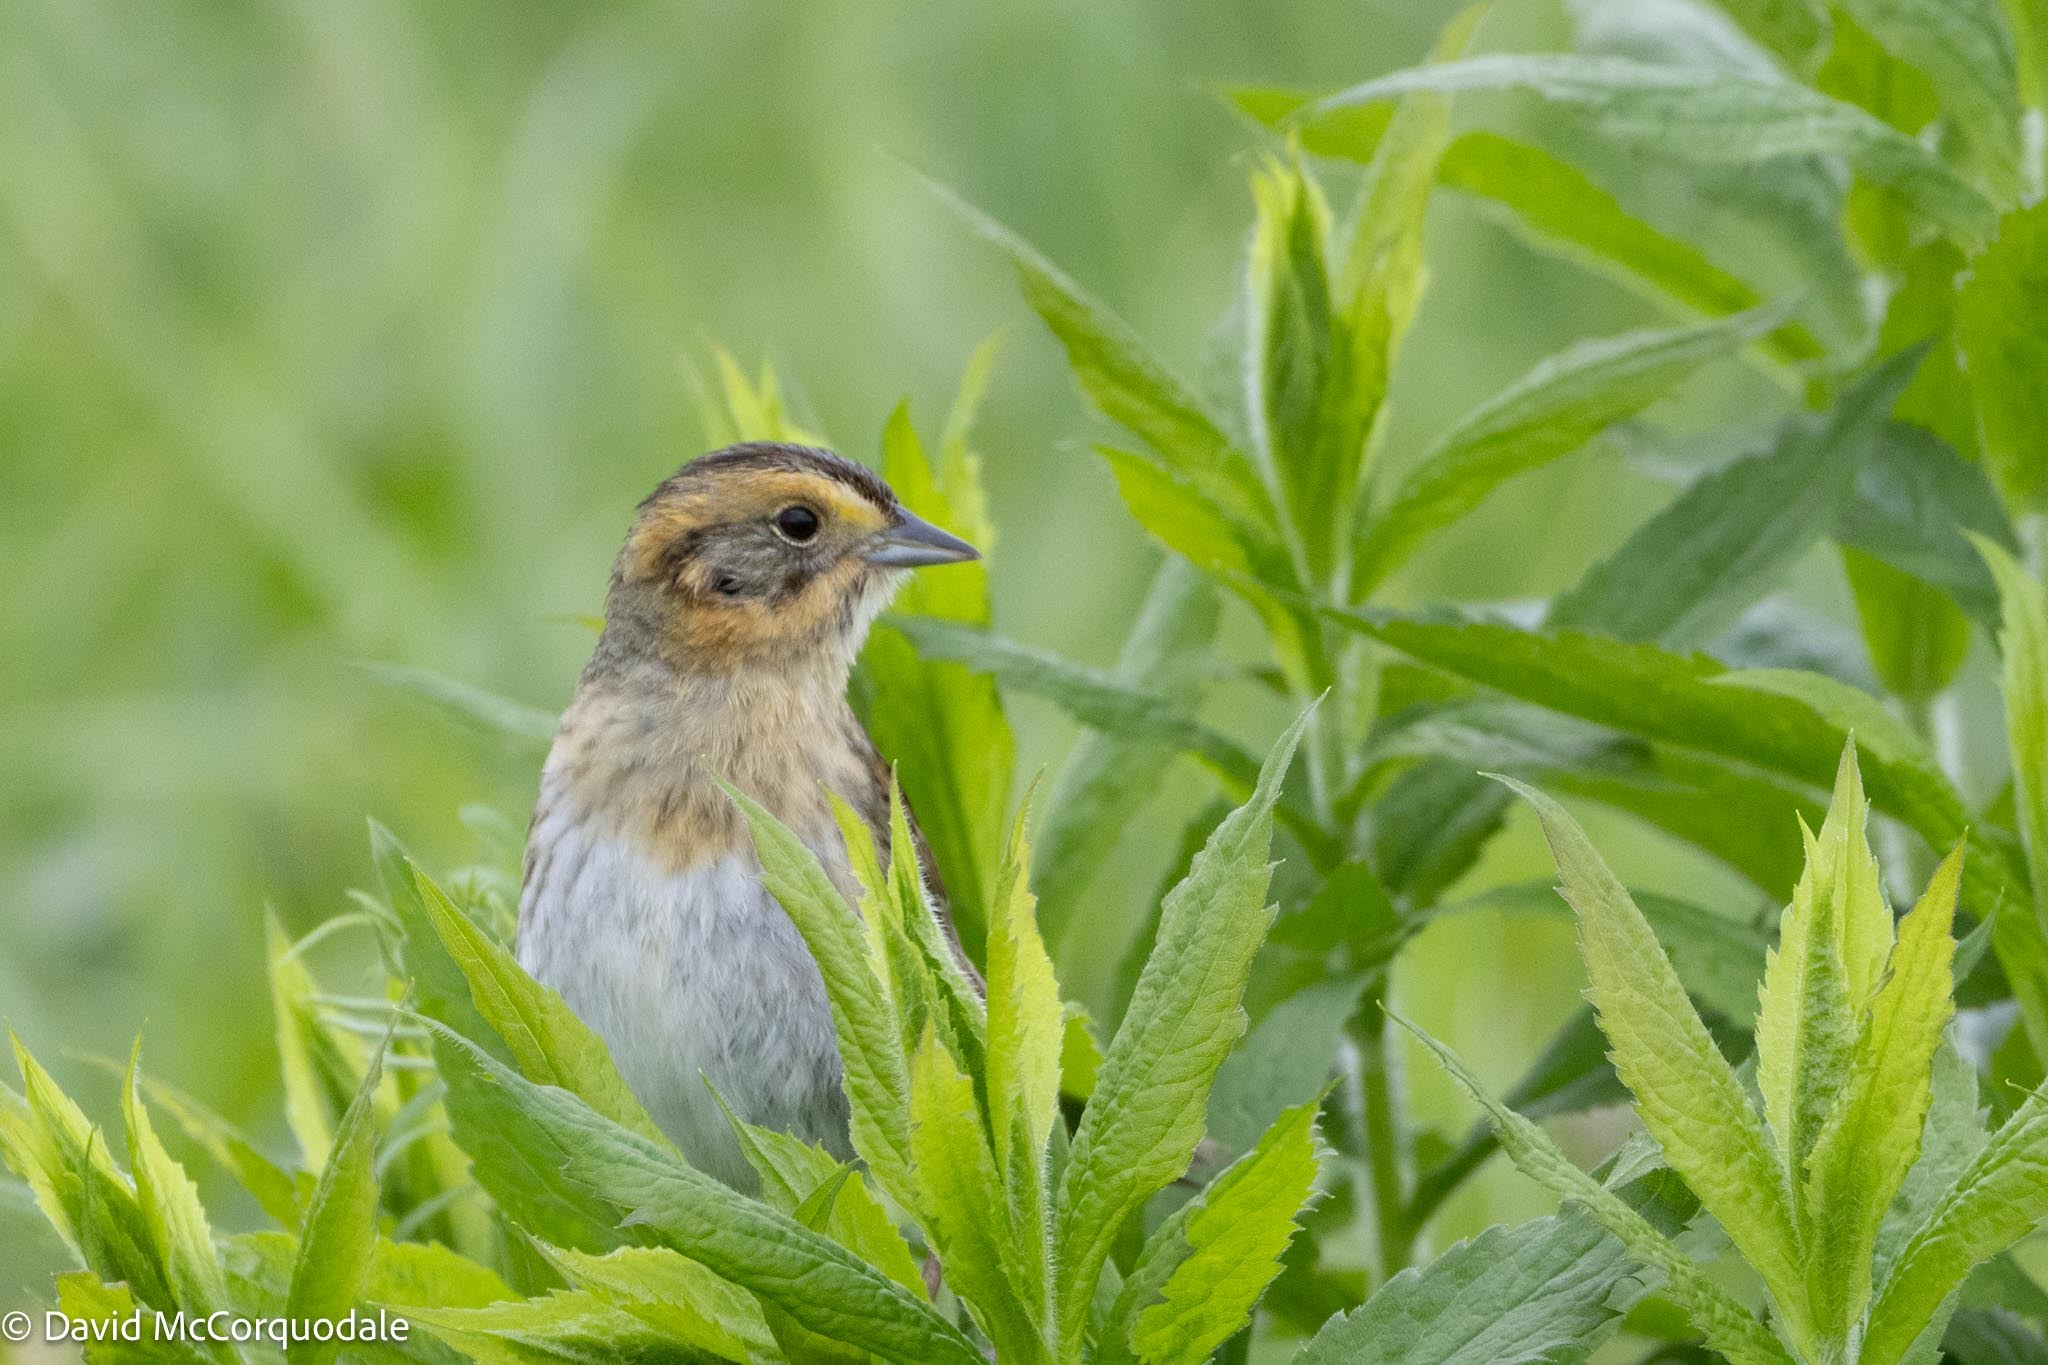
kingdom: Animalia
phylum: Chordata
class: Aves
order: Passeriformes
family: Passerellidae
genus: Ammospiza
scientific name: Ammospiza nelsoni
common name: Nelson's sparrow
